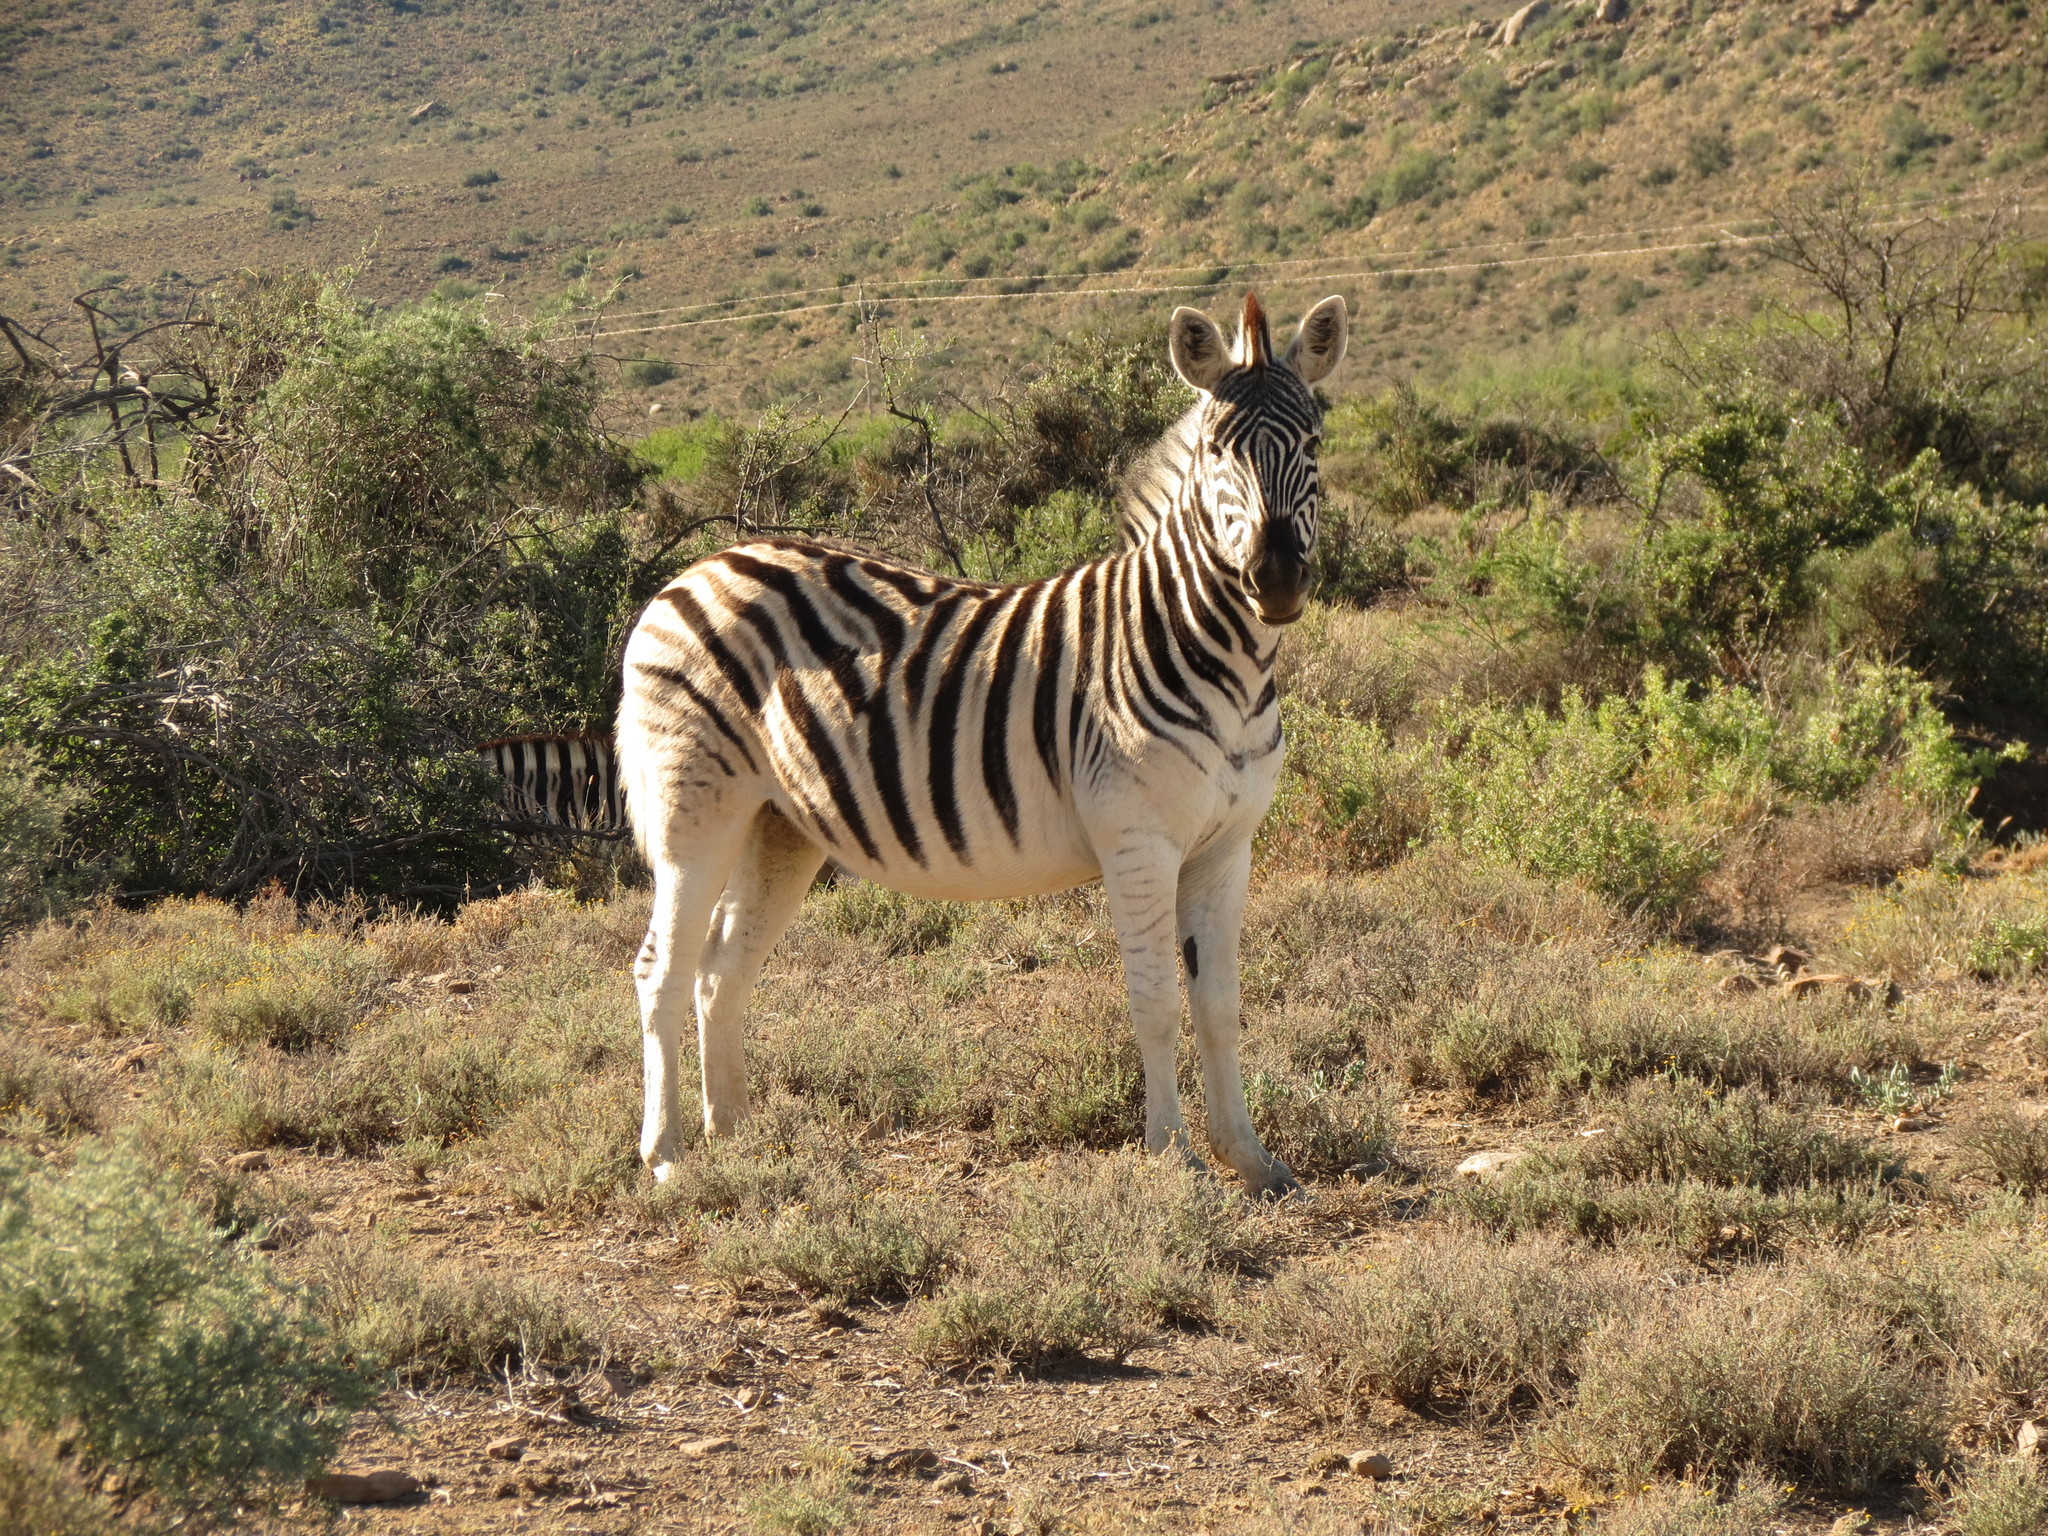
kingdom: Animalia
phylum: Chordata
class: Mammalia
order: Perissodactyla
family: Equidae
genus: Equus
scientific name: Equus quagga
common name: Plains zebra
